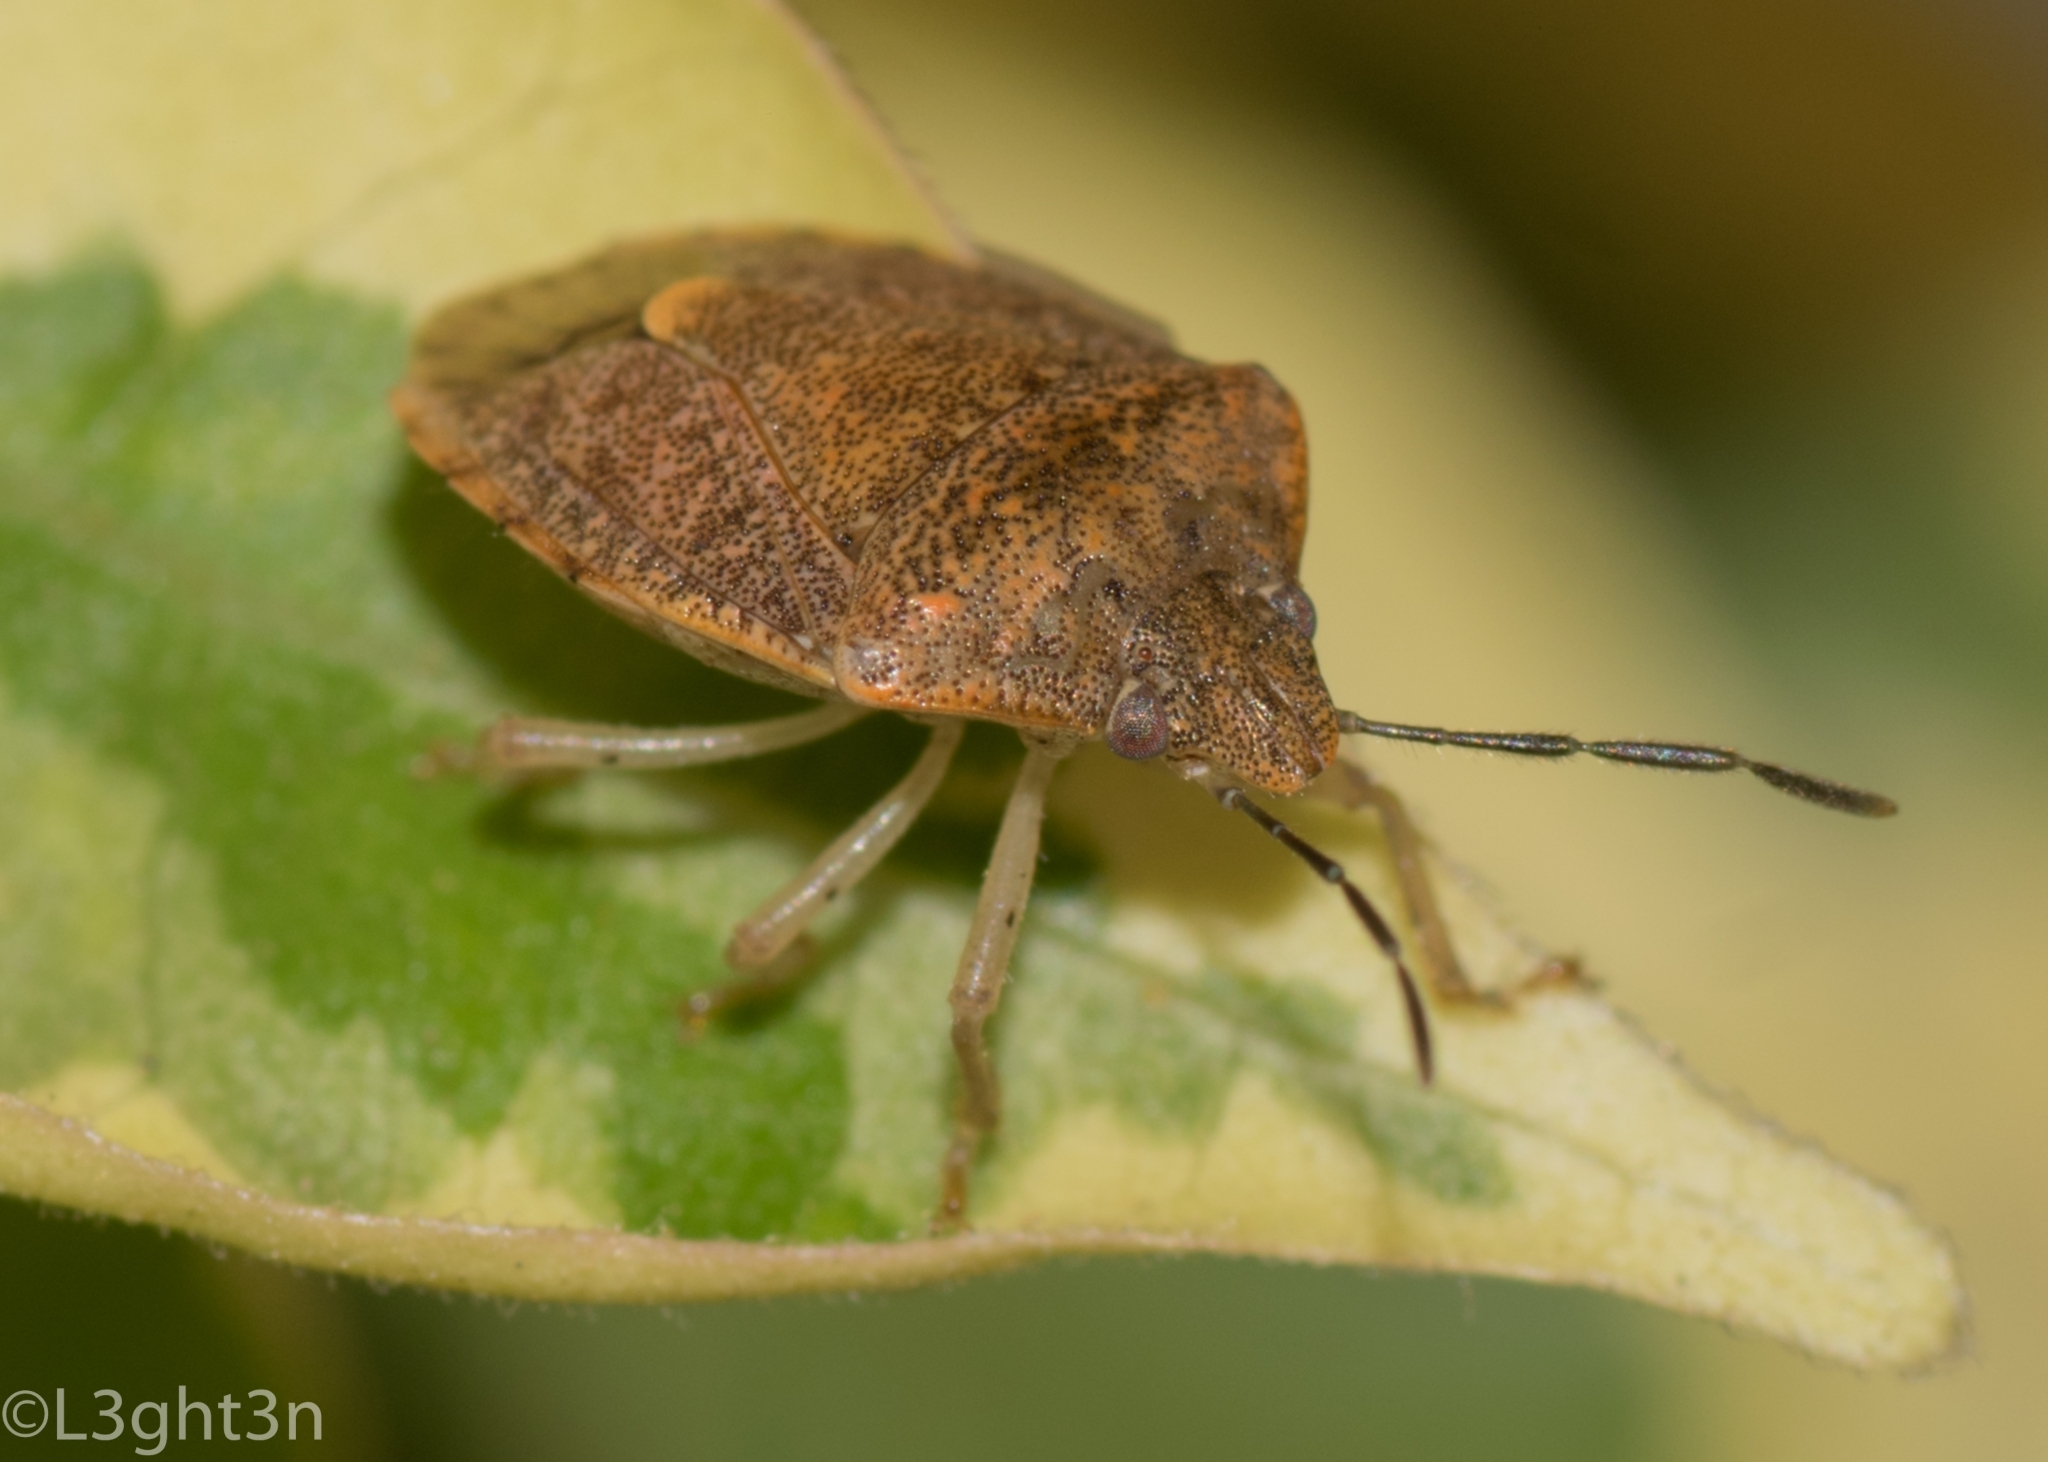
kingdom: Animalia
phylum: Arthropoda
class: Insecta
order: Hemiptera
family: Pentatomidae
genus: Dryadocoris
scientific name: Dryadocoris apicalis
